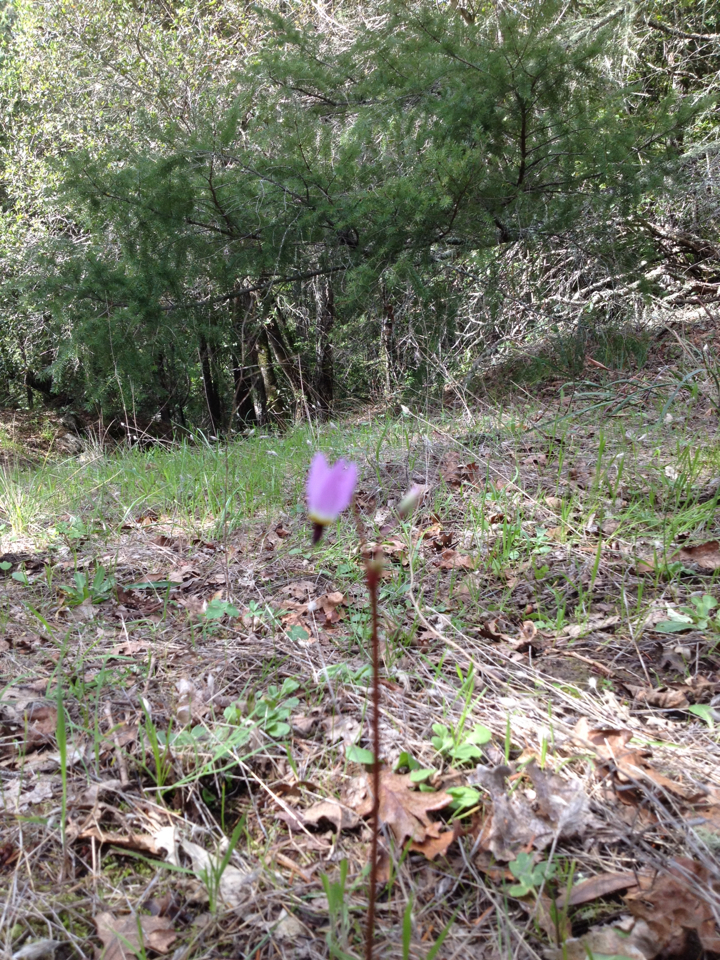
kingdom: Plantae
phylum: Tracheophyta
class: Magnoliopsida
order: Ericales
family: Primulaceae
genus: Dodecatheon
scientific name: Dodecatheon hendersonii
